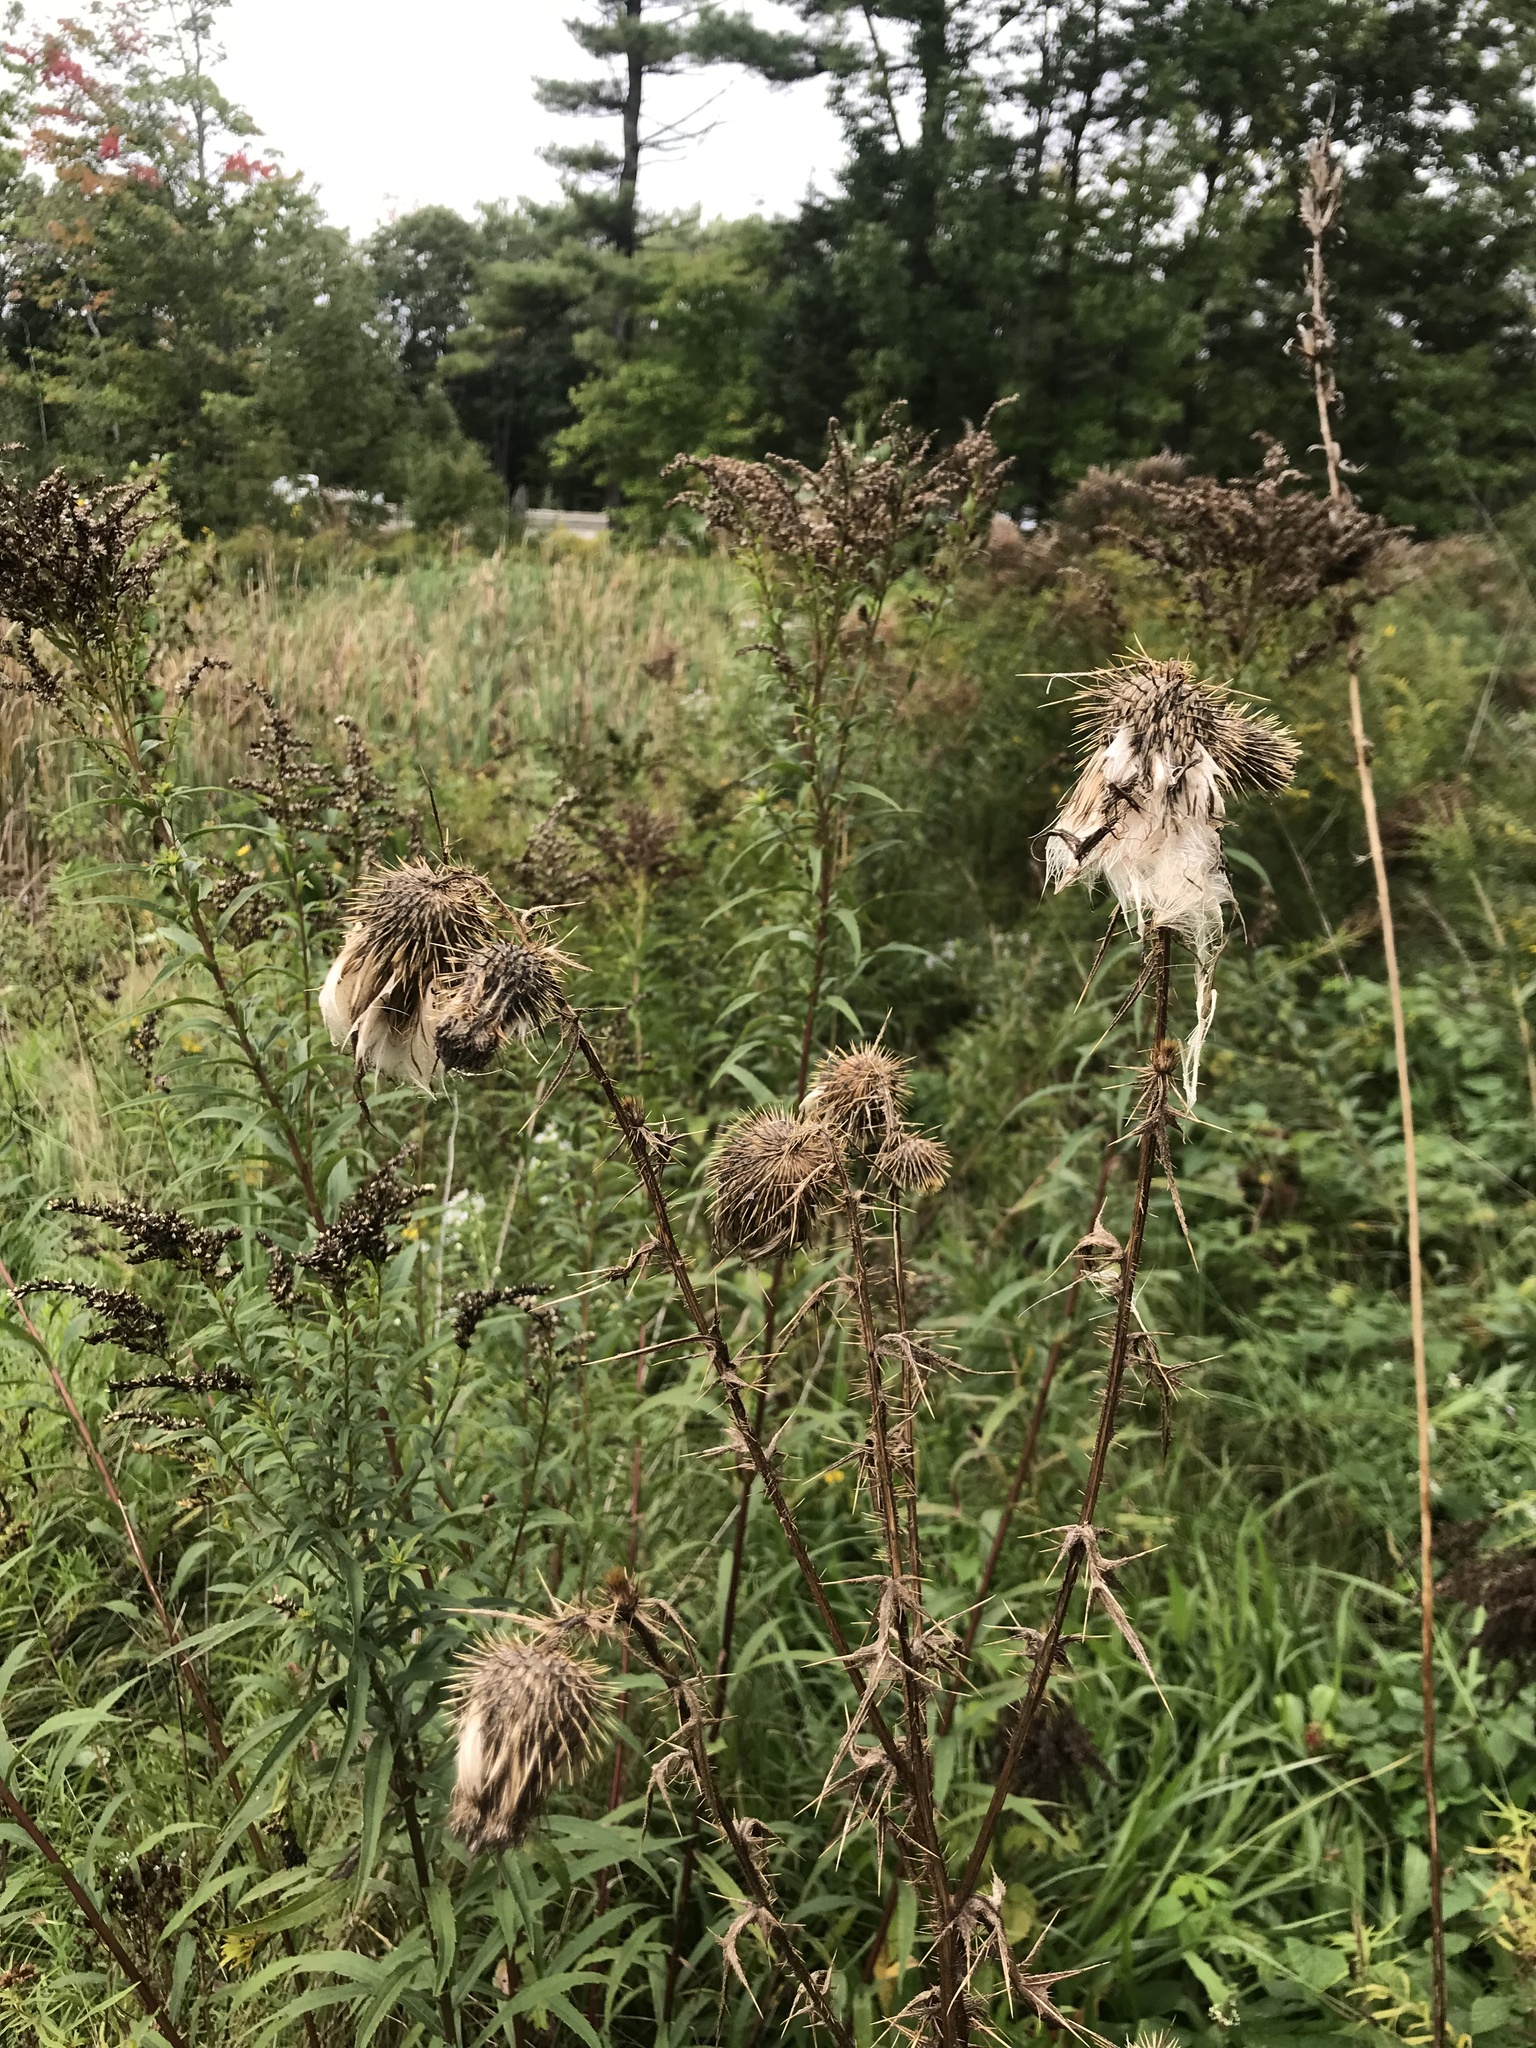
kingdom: Plantae
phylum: Tracheophyta
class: Magnoliopsida
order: Asterales
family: Asteraceae
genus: Cirsium
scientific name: Cirsium vulgare
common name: Bull thistle
